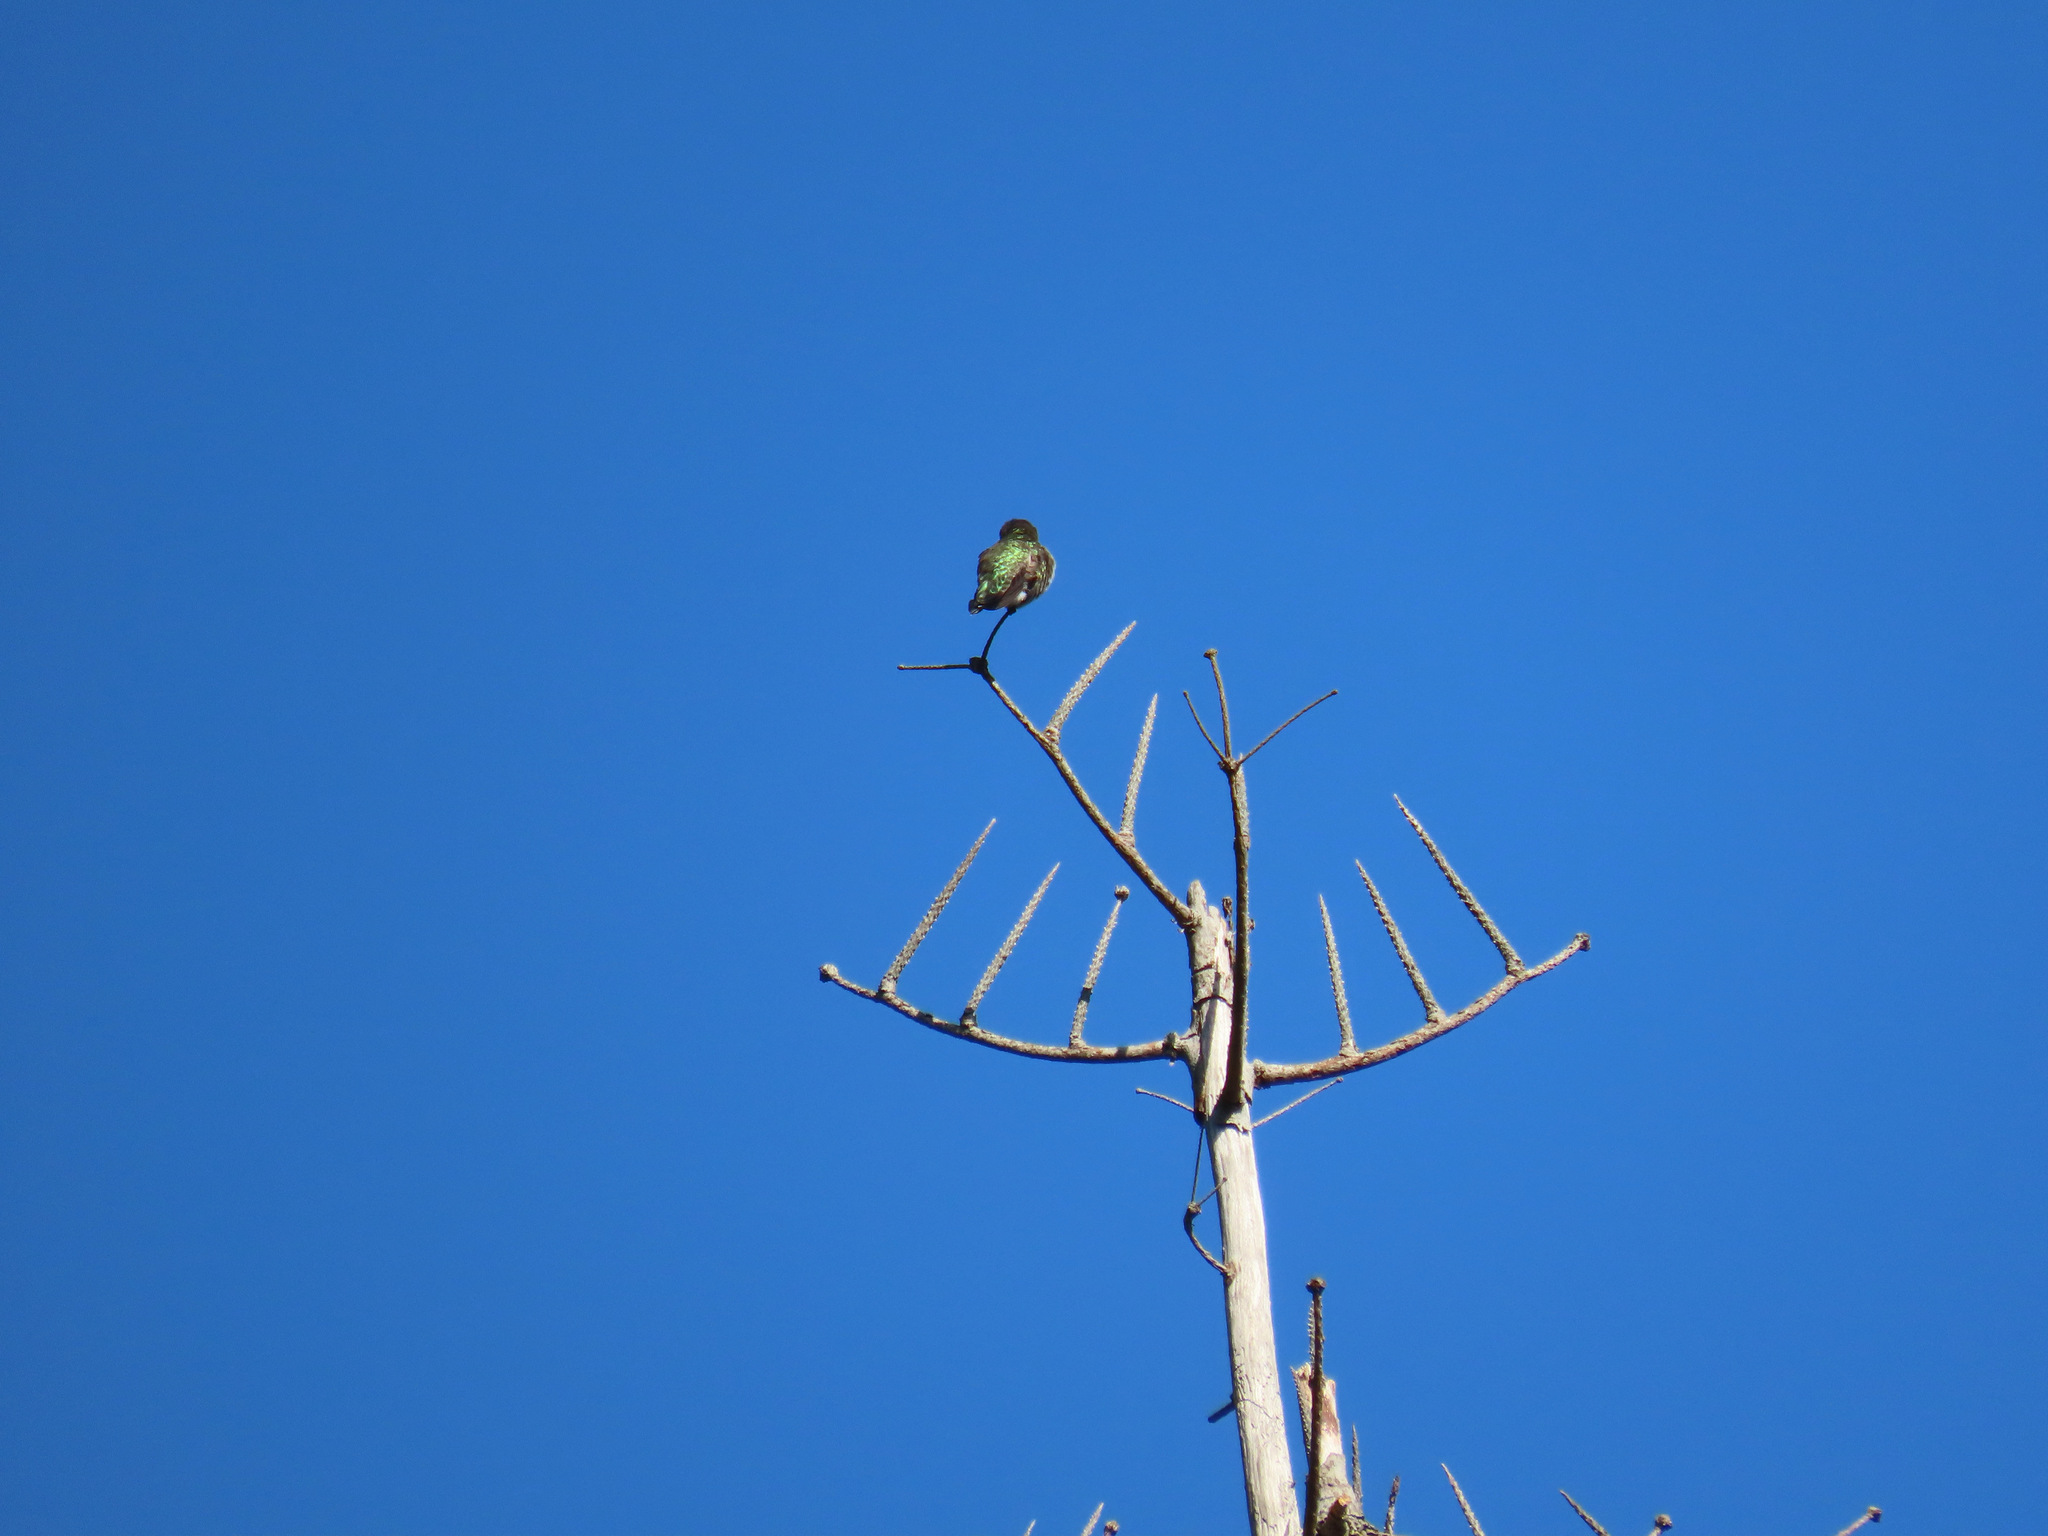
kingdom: Animalia
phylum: Chordata
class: Aves
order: Apodiformes
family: Trochilidae
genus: Calypte
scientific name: Calypte anna
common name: Anna's hummingbird
